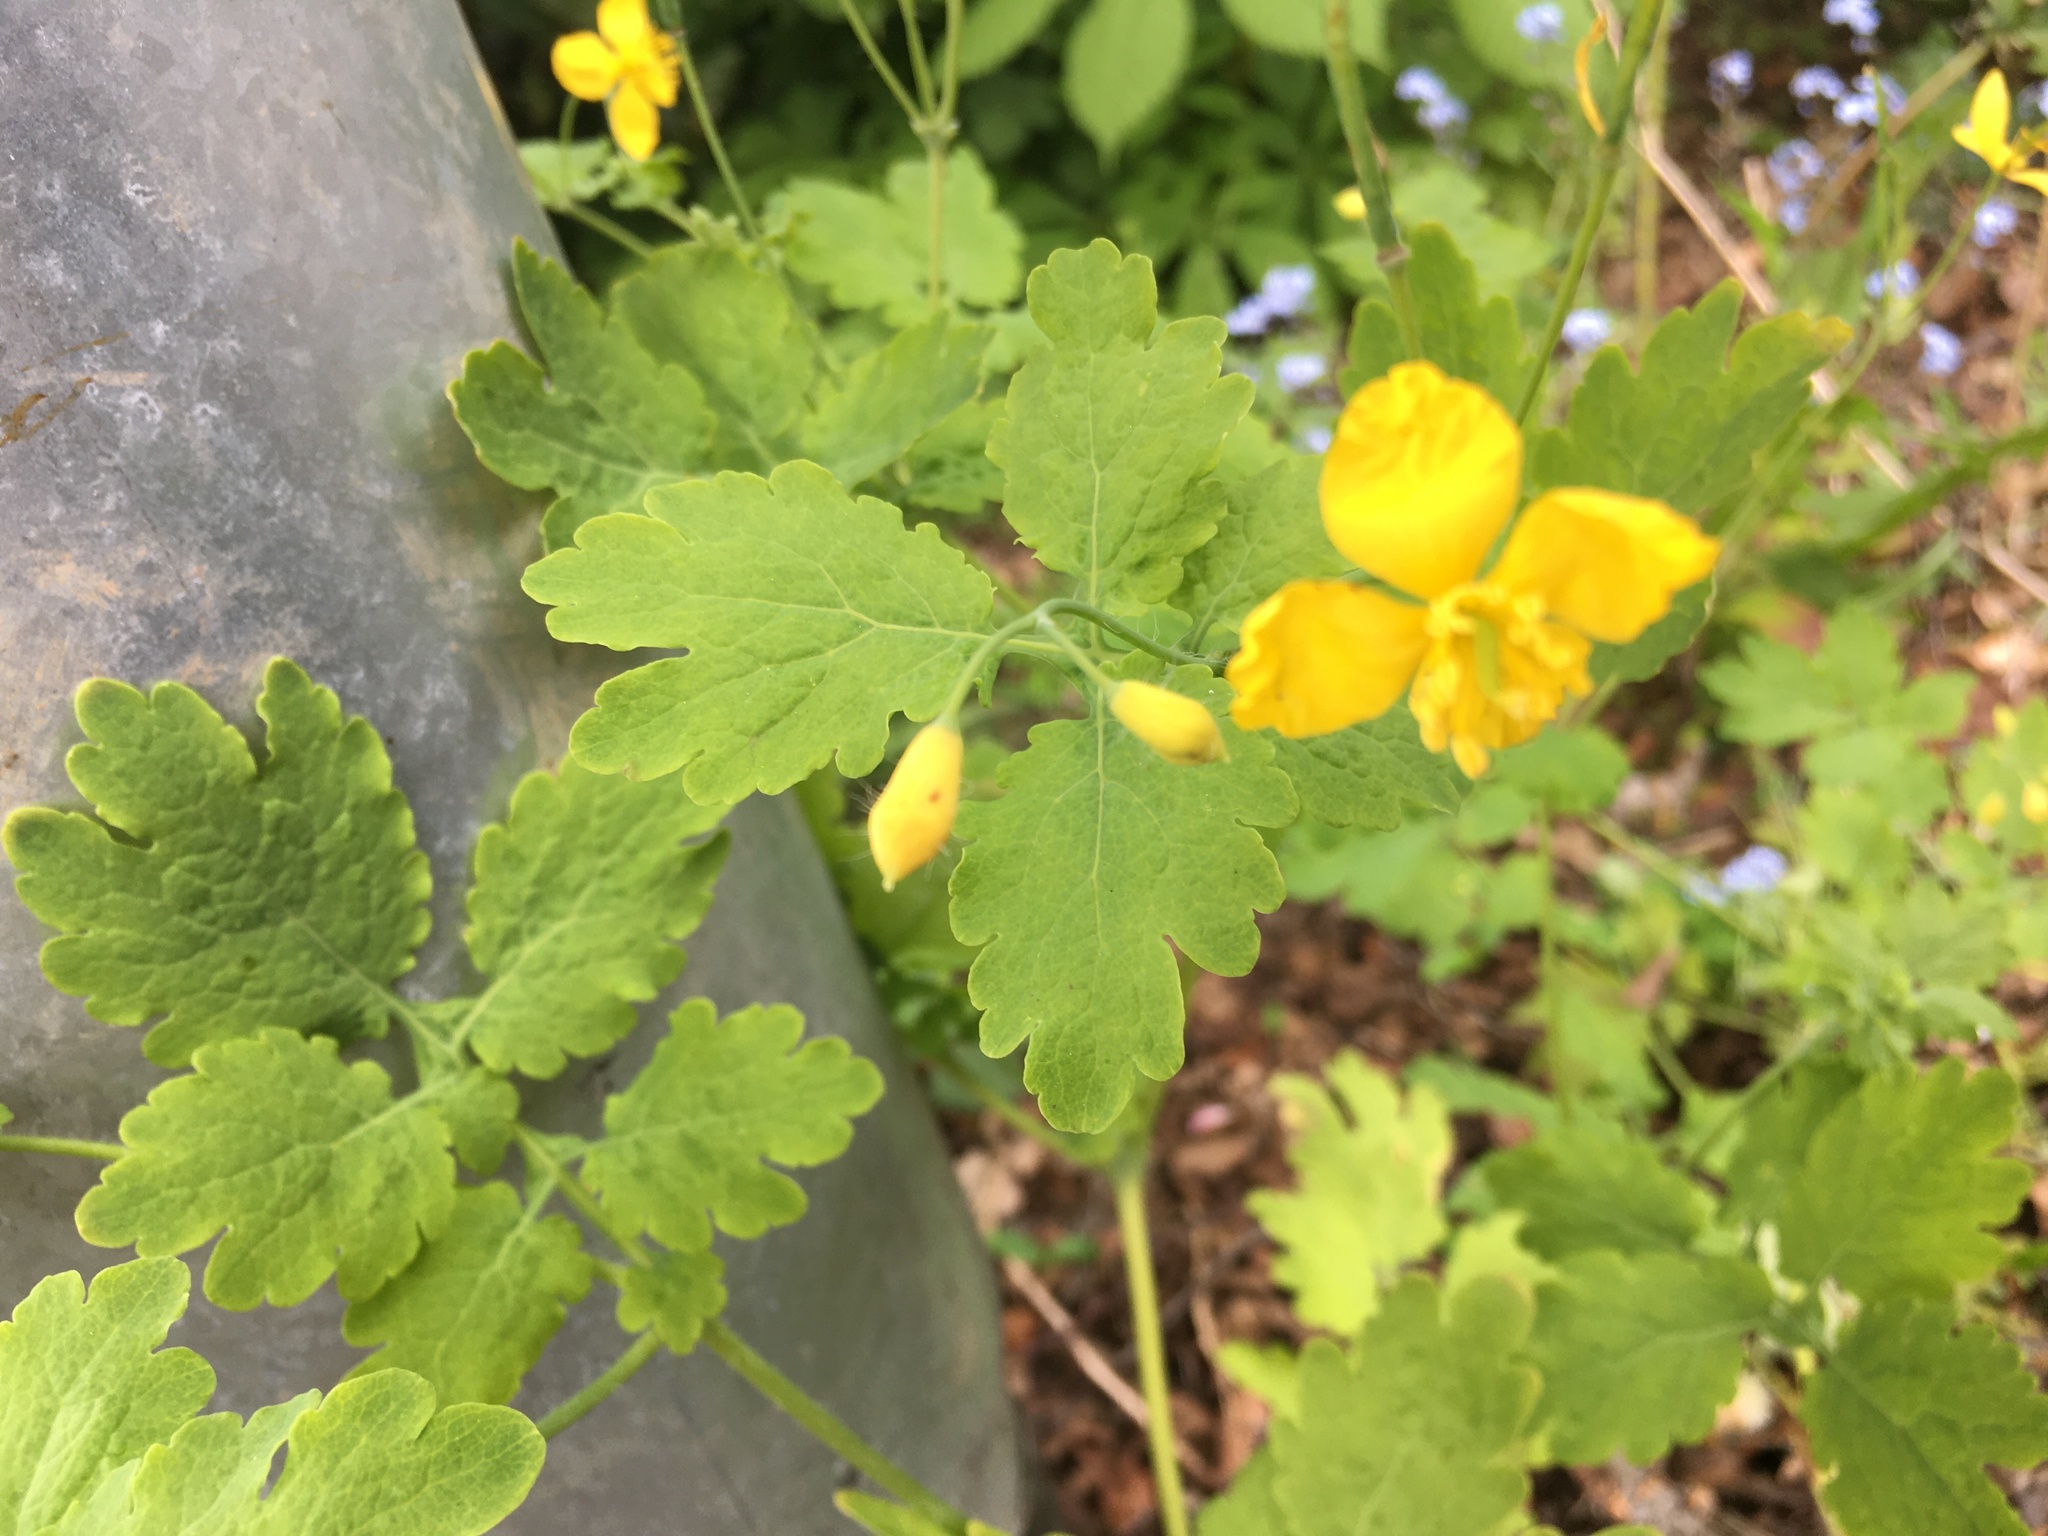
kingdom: Plantae
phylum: Tracheophyta
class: Magnoliopsida
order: Ranunculales
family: Papaveraceae
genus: Chelidonium
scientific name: Chelidonium majus
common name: Greater celandine
